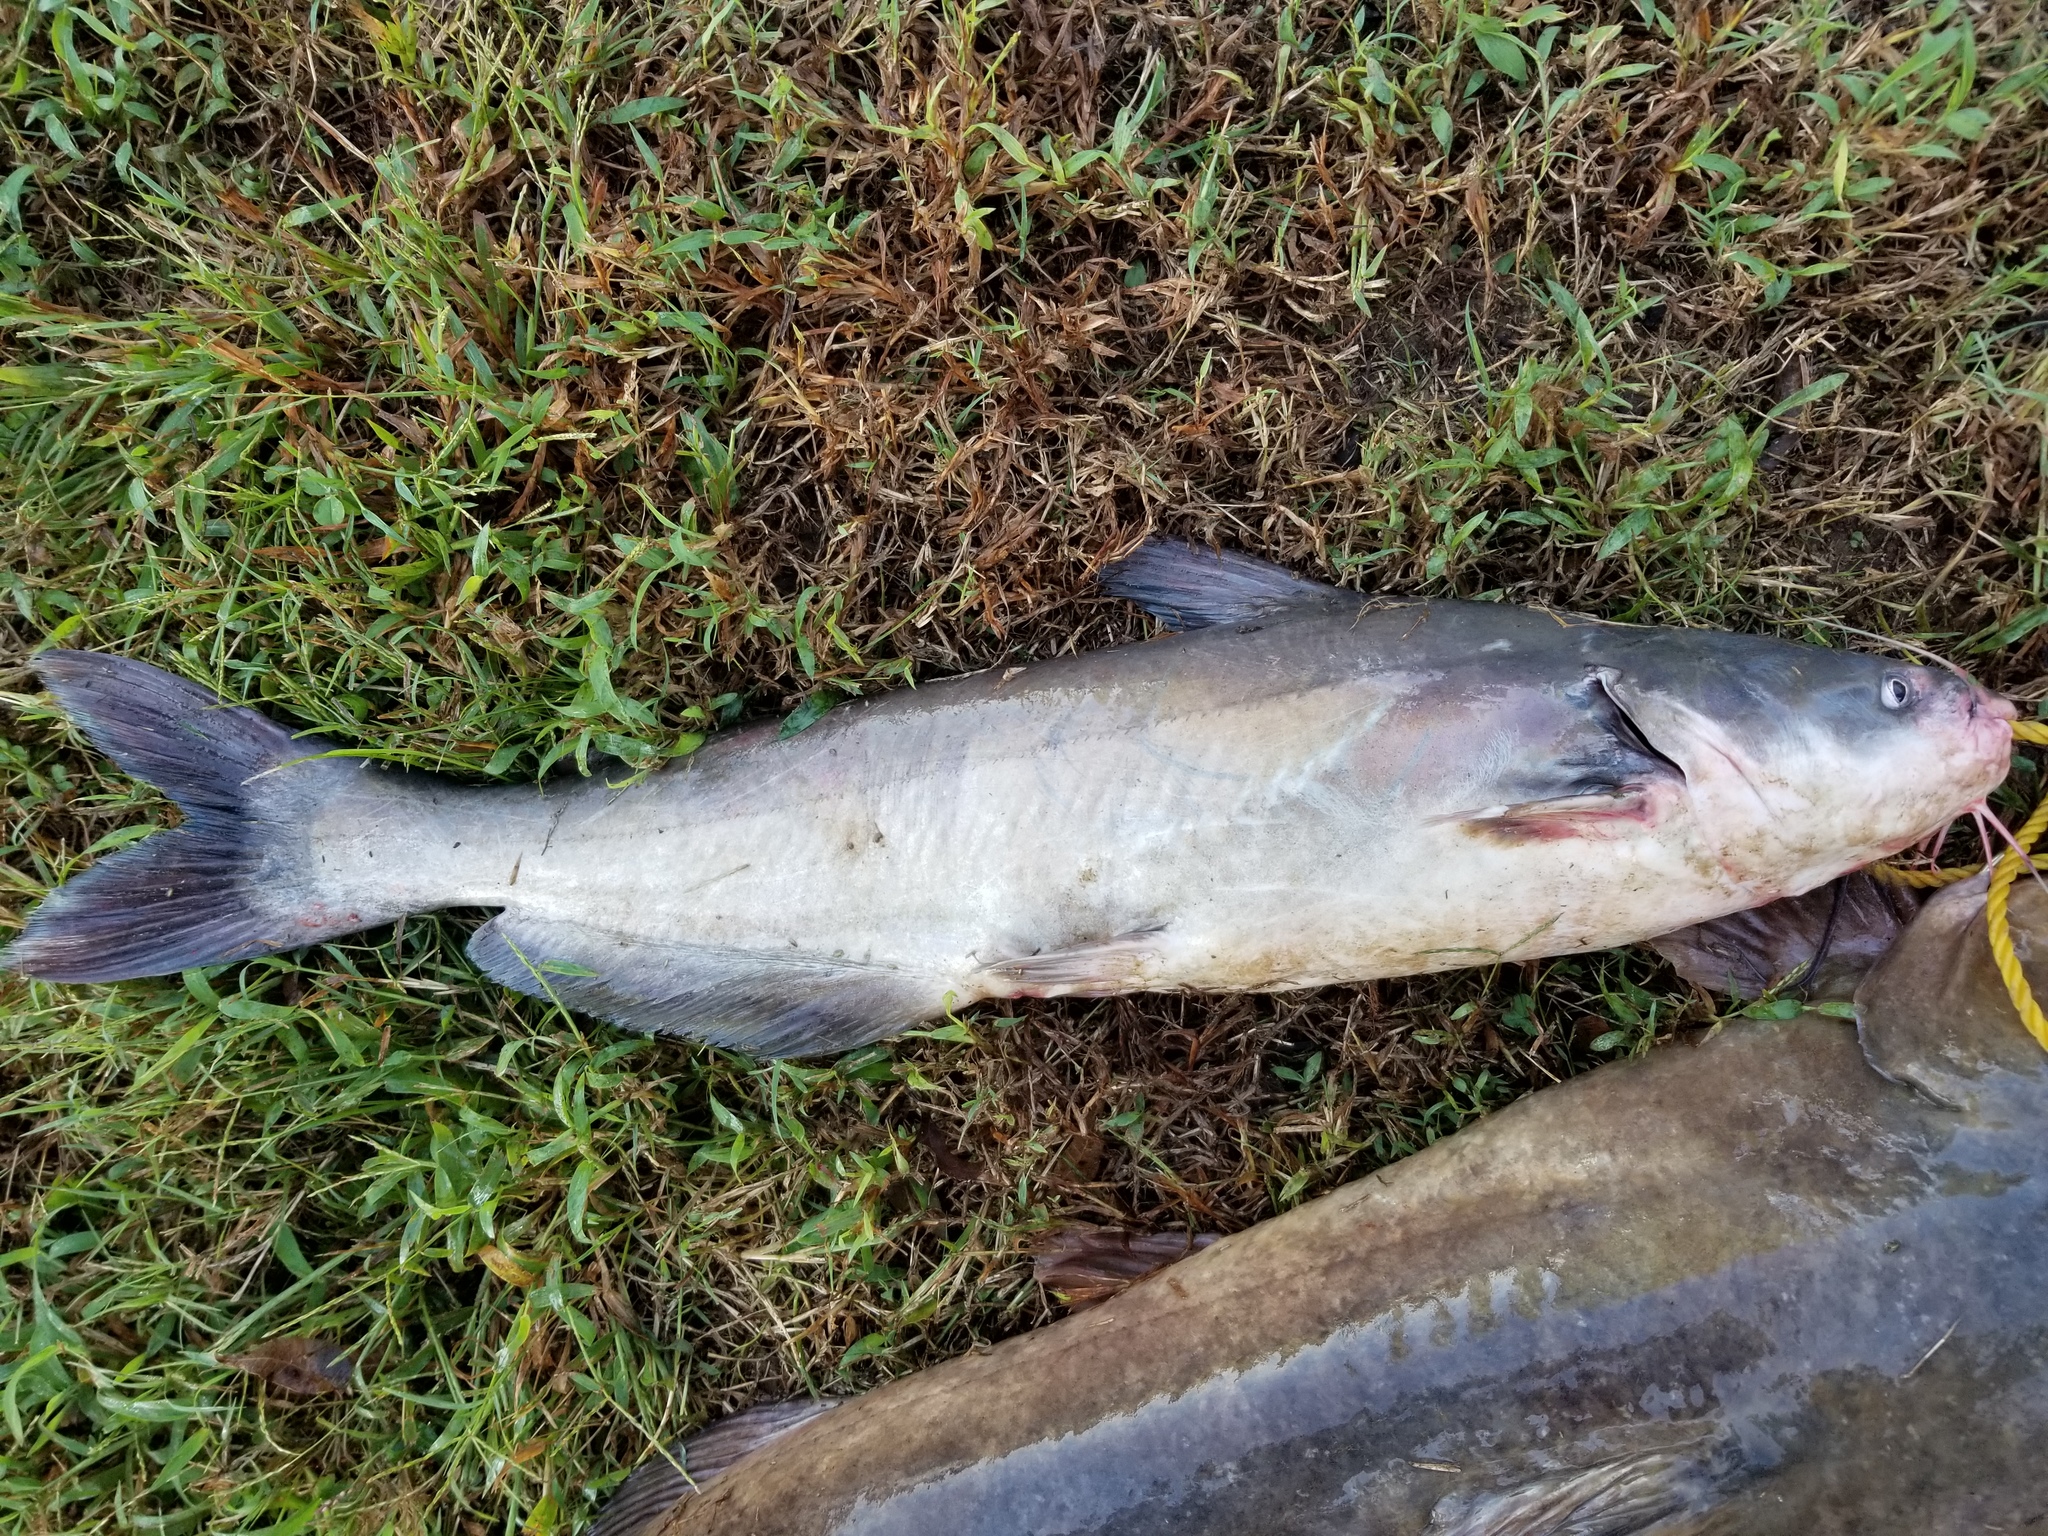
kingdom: Animalia
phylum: Chordata
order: Siluriformes
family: Ictaluridae
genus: Ictalurus
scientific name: Ictalurus furcatus
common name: Blue catfish
